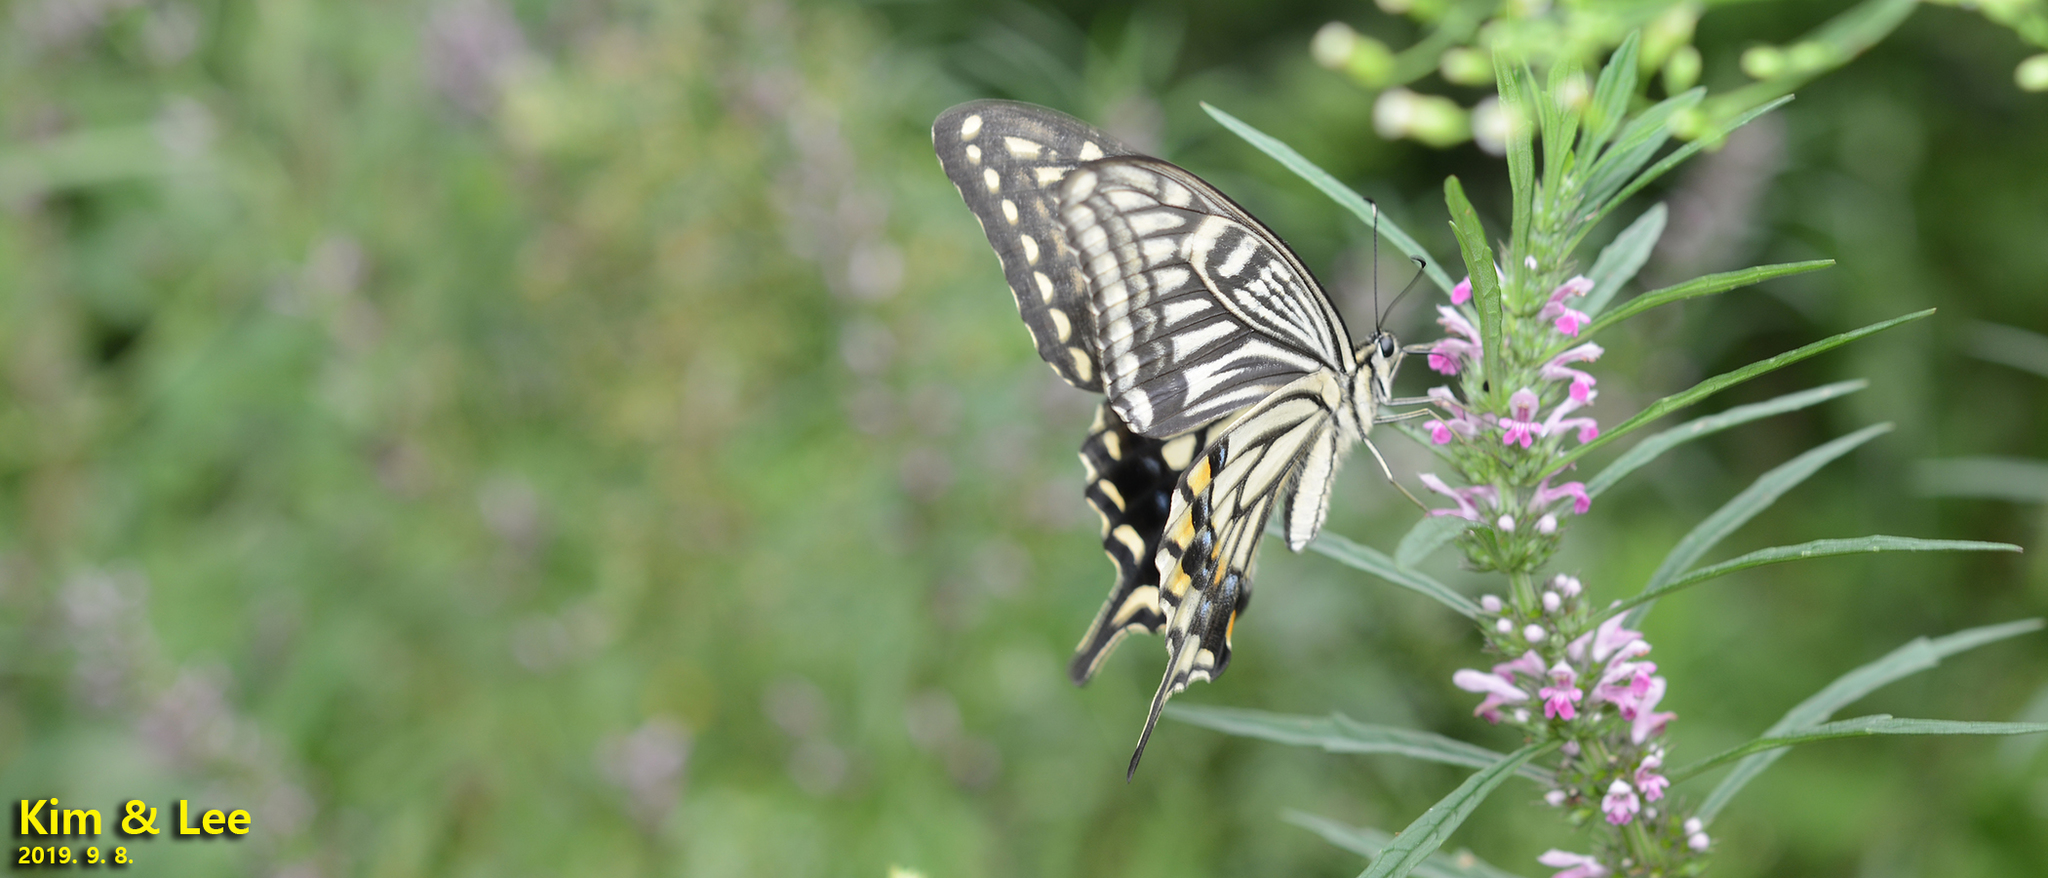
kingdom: Animalia
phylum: Arthropoda
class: Insecta
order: Lepidoptera
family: Papilionidae
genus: Papilio
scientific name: Papilio xuthus
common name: Asian swallowtail
